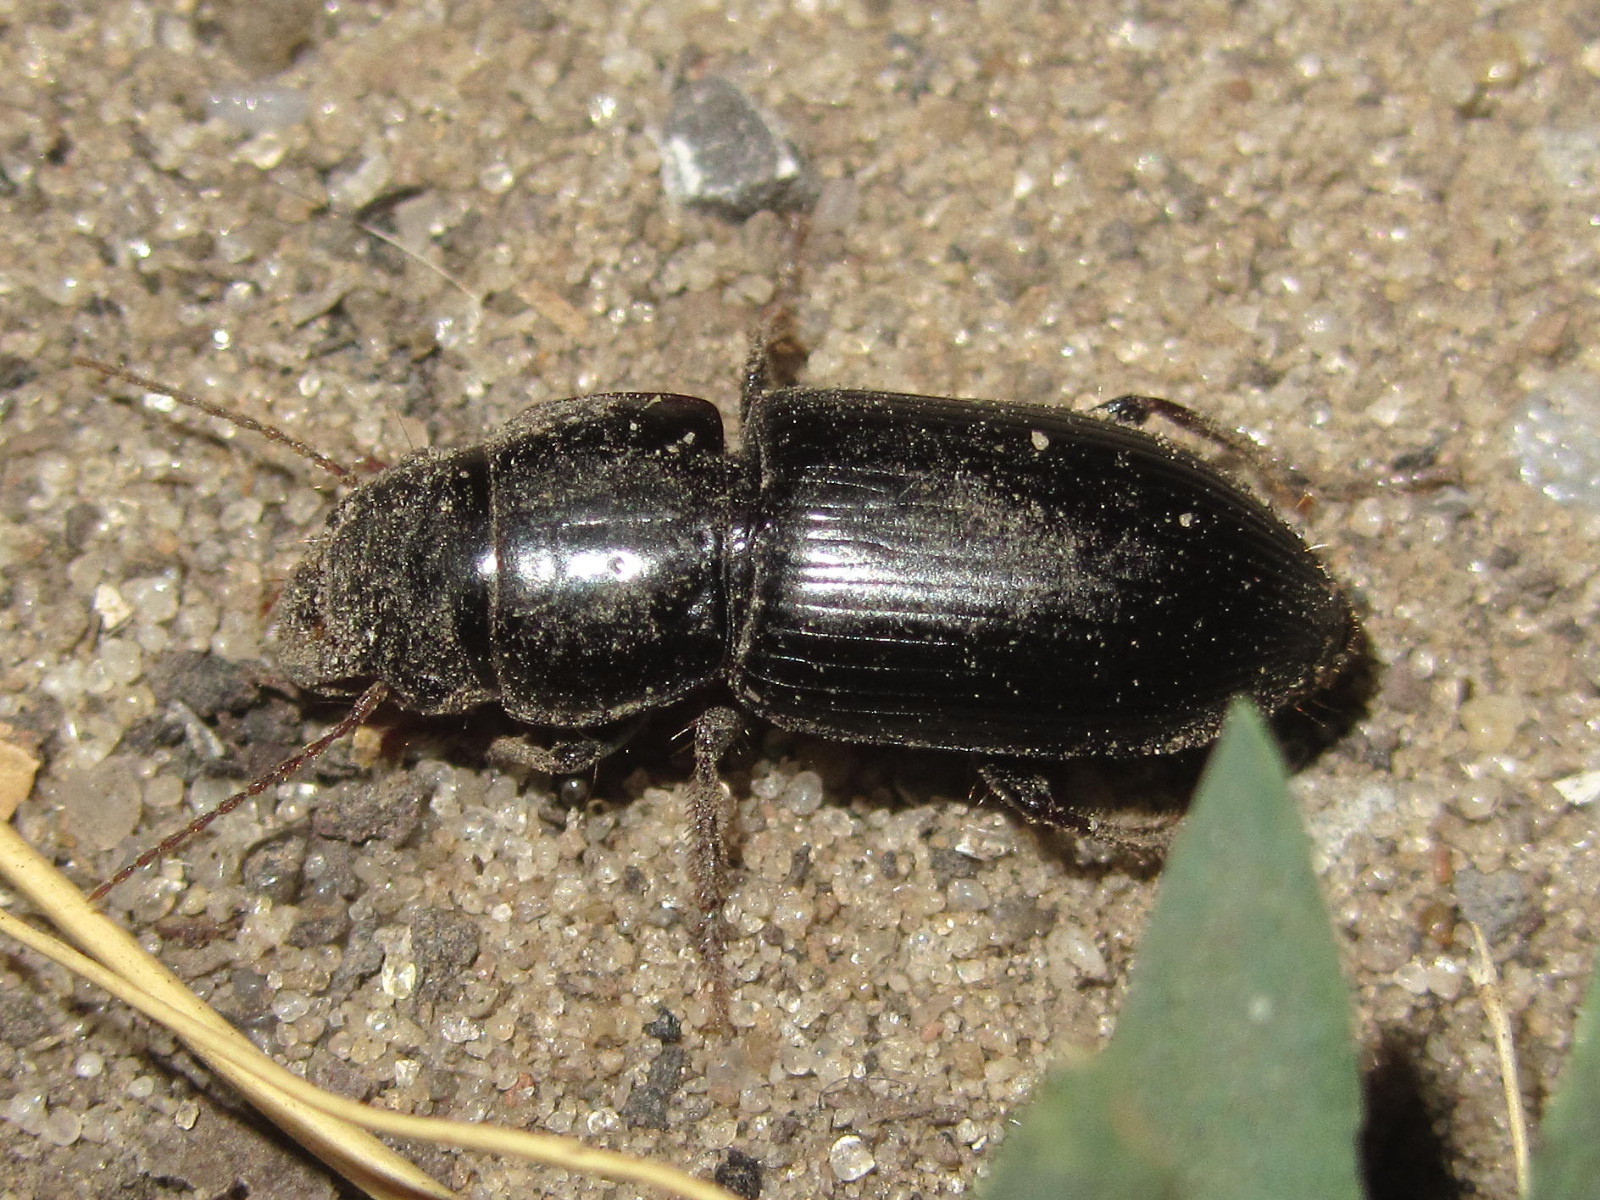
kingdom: Animalia
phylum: Arthropoda
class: Insecta
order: Coleoptera
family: Carabidae
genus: Acinopus
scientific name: Acinopus ammophilus
